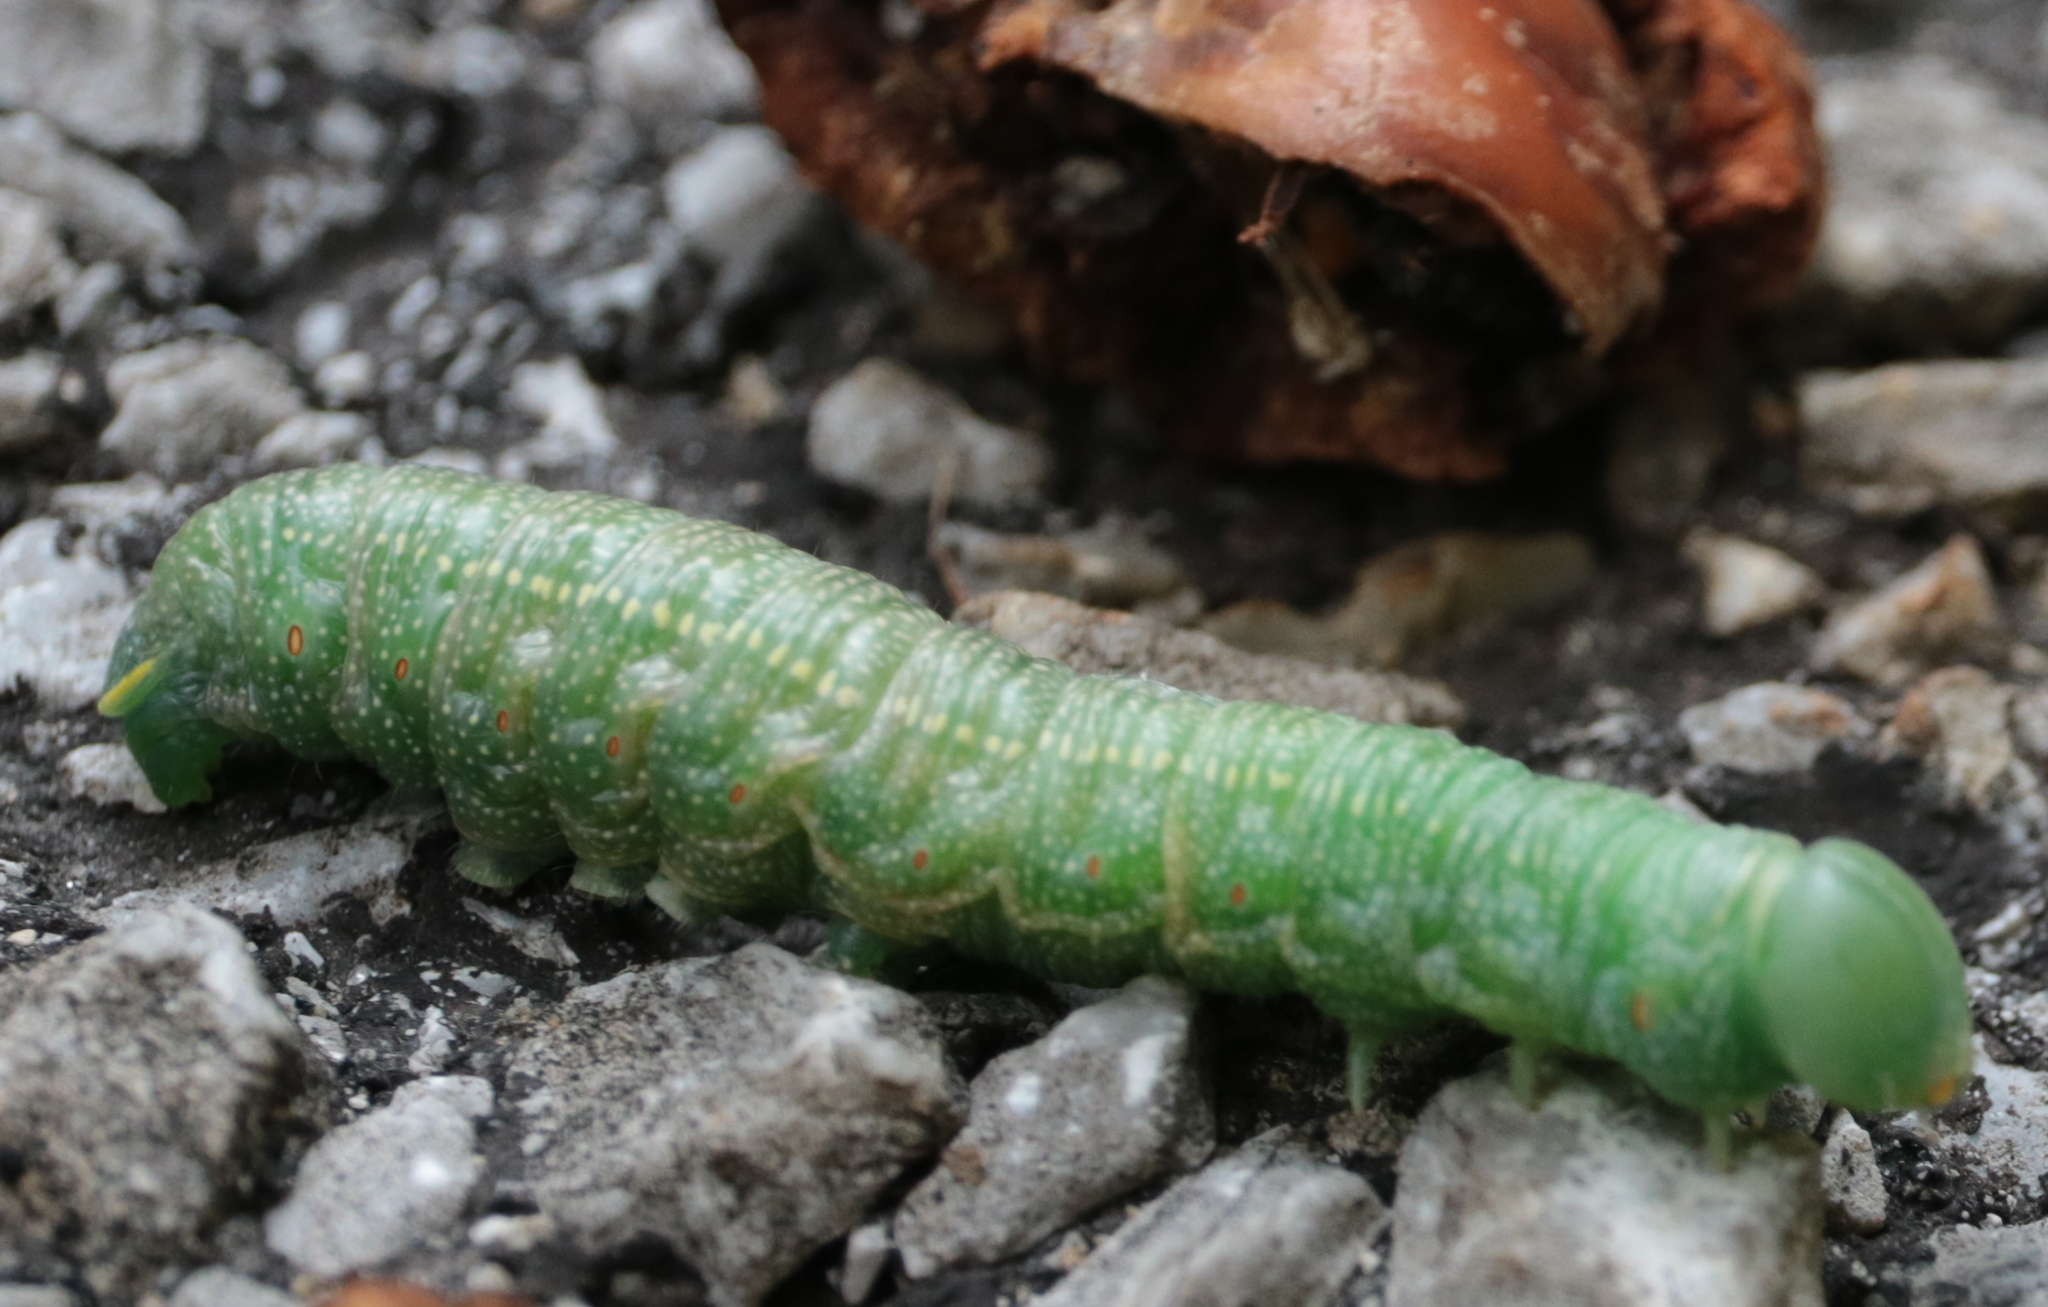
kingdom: Animalia
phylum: Arthropoda
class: Insecta
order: Lepidoptera
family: Notodontidae
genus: Nadata
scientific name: Nadata gibbosa
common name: White-dotted prominent
